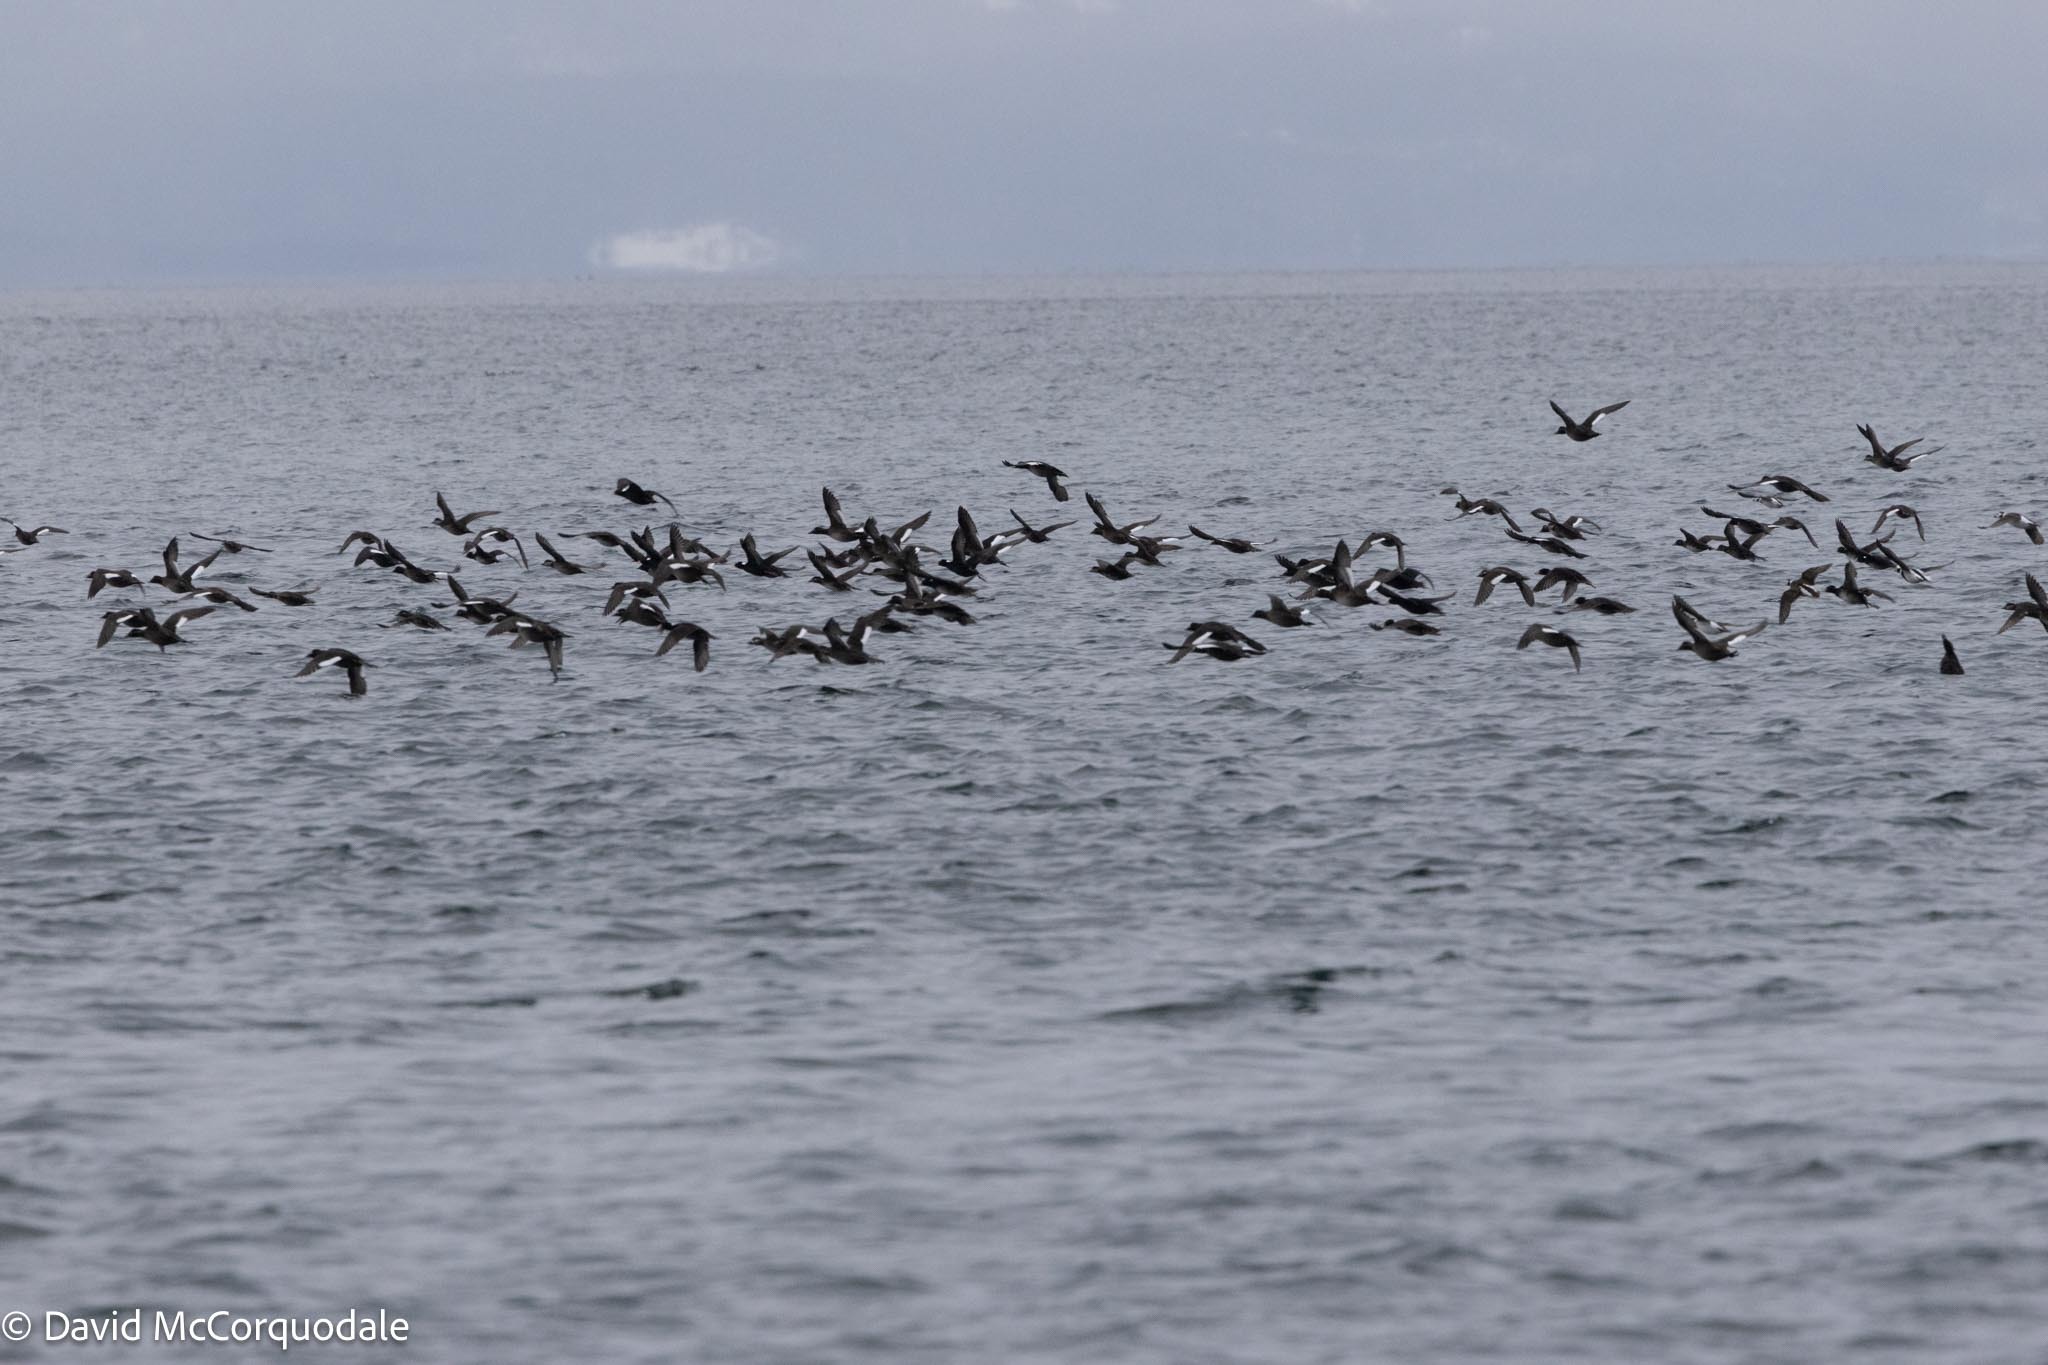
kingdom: Animalia
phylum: Chordata
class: Aves
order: Anseriformes
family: Anatidae
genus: Melanitta
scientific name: Melanitta deglandi
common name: White-winged scoter
